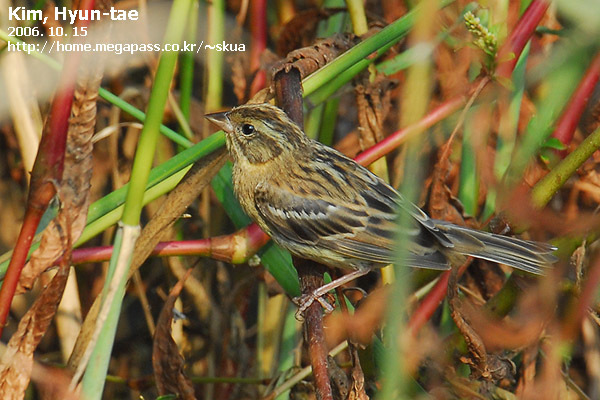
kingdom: Animalia
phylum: Chordata
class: Aves
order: Passeriformes
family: Emberizidae
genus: Emberiza
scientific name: Emberiza aureola
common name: Yellow-breasted bunting
